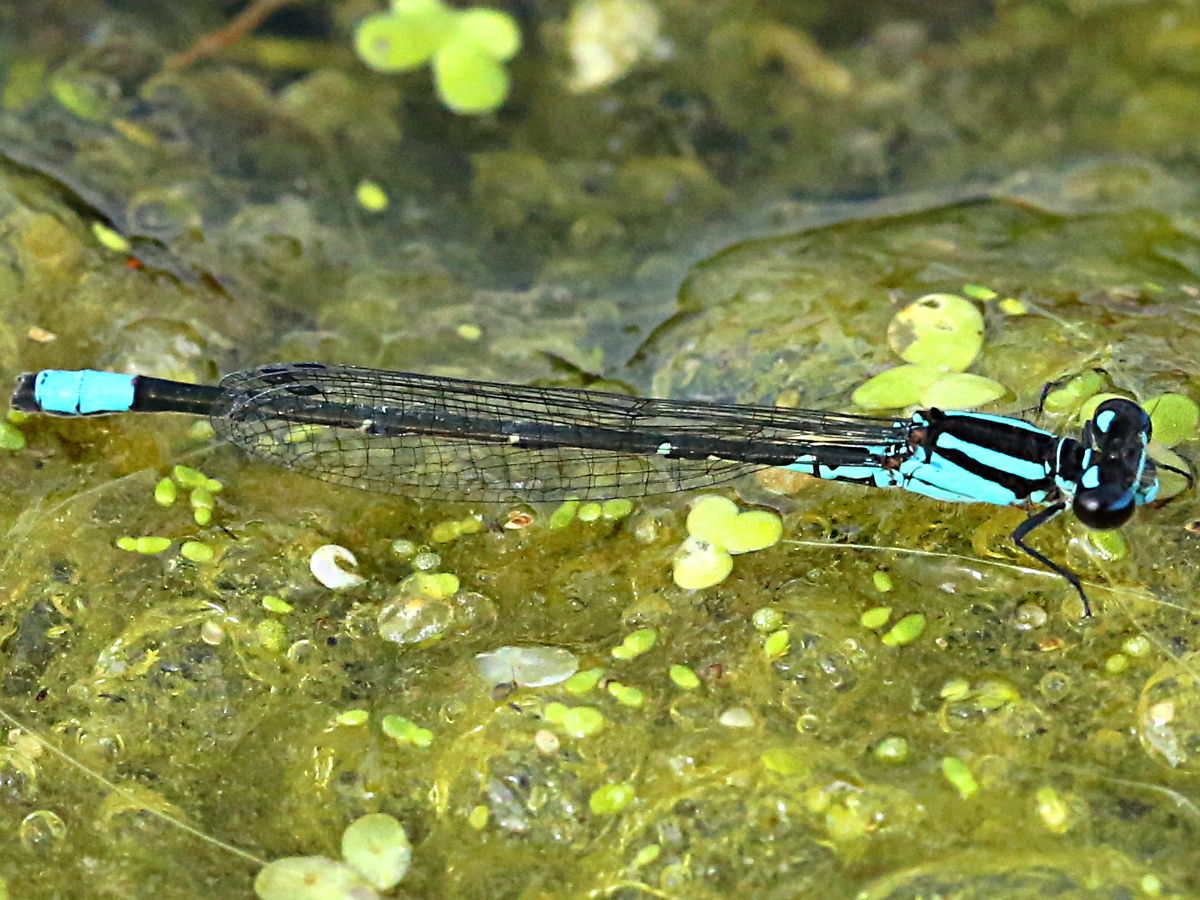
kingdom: Animalia
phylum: Arthropoda
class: Insecta
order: Odonata
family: Coenagrionidae
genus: Enallagma
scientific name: Enallagma geminatum
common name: Skimming bluet
